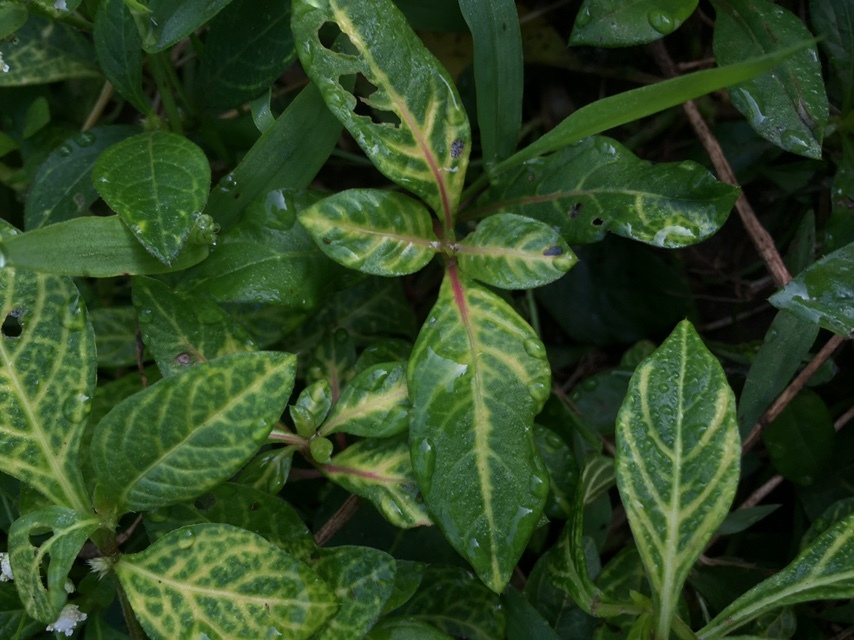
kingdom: Viruses
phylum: Cressdnaviricota
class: Repensiviricetes
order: Geplafuvirales
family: Geminiviridae
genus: Begomovirus
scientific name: Begomovirus Alternanthera yellow vein virus
